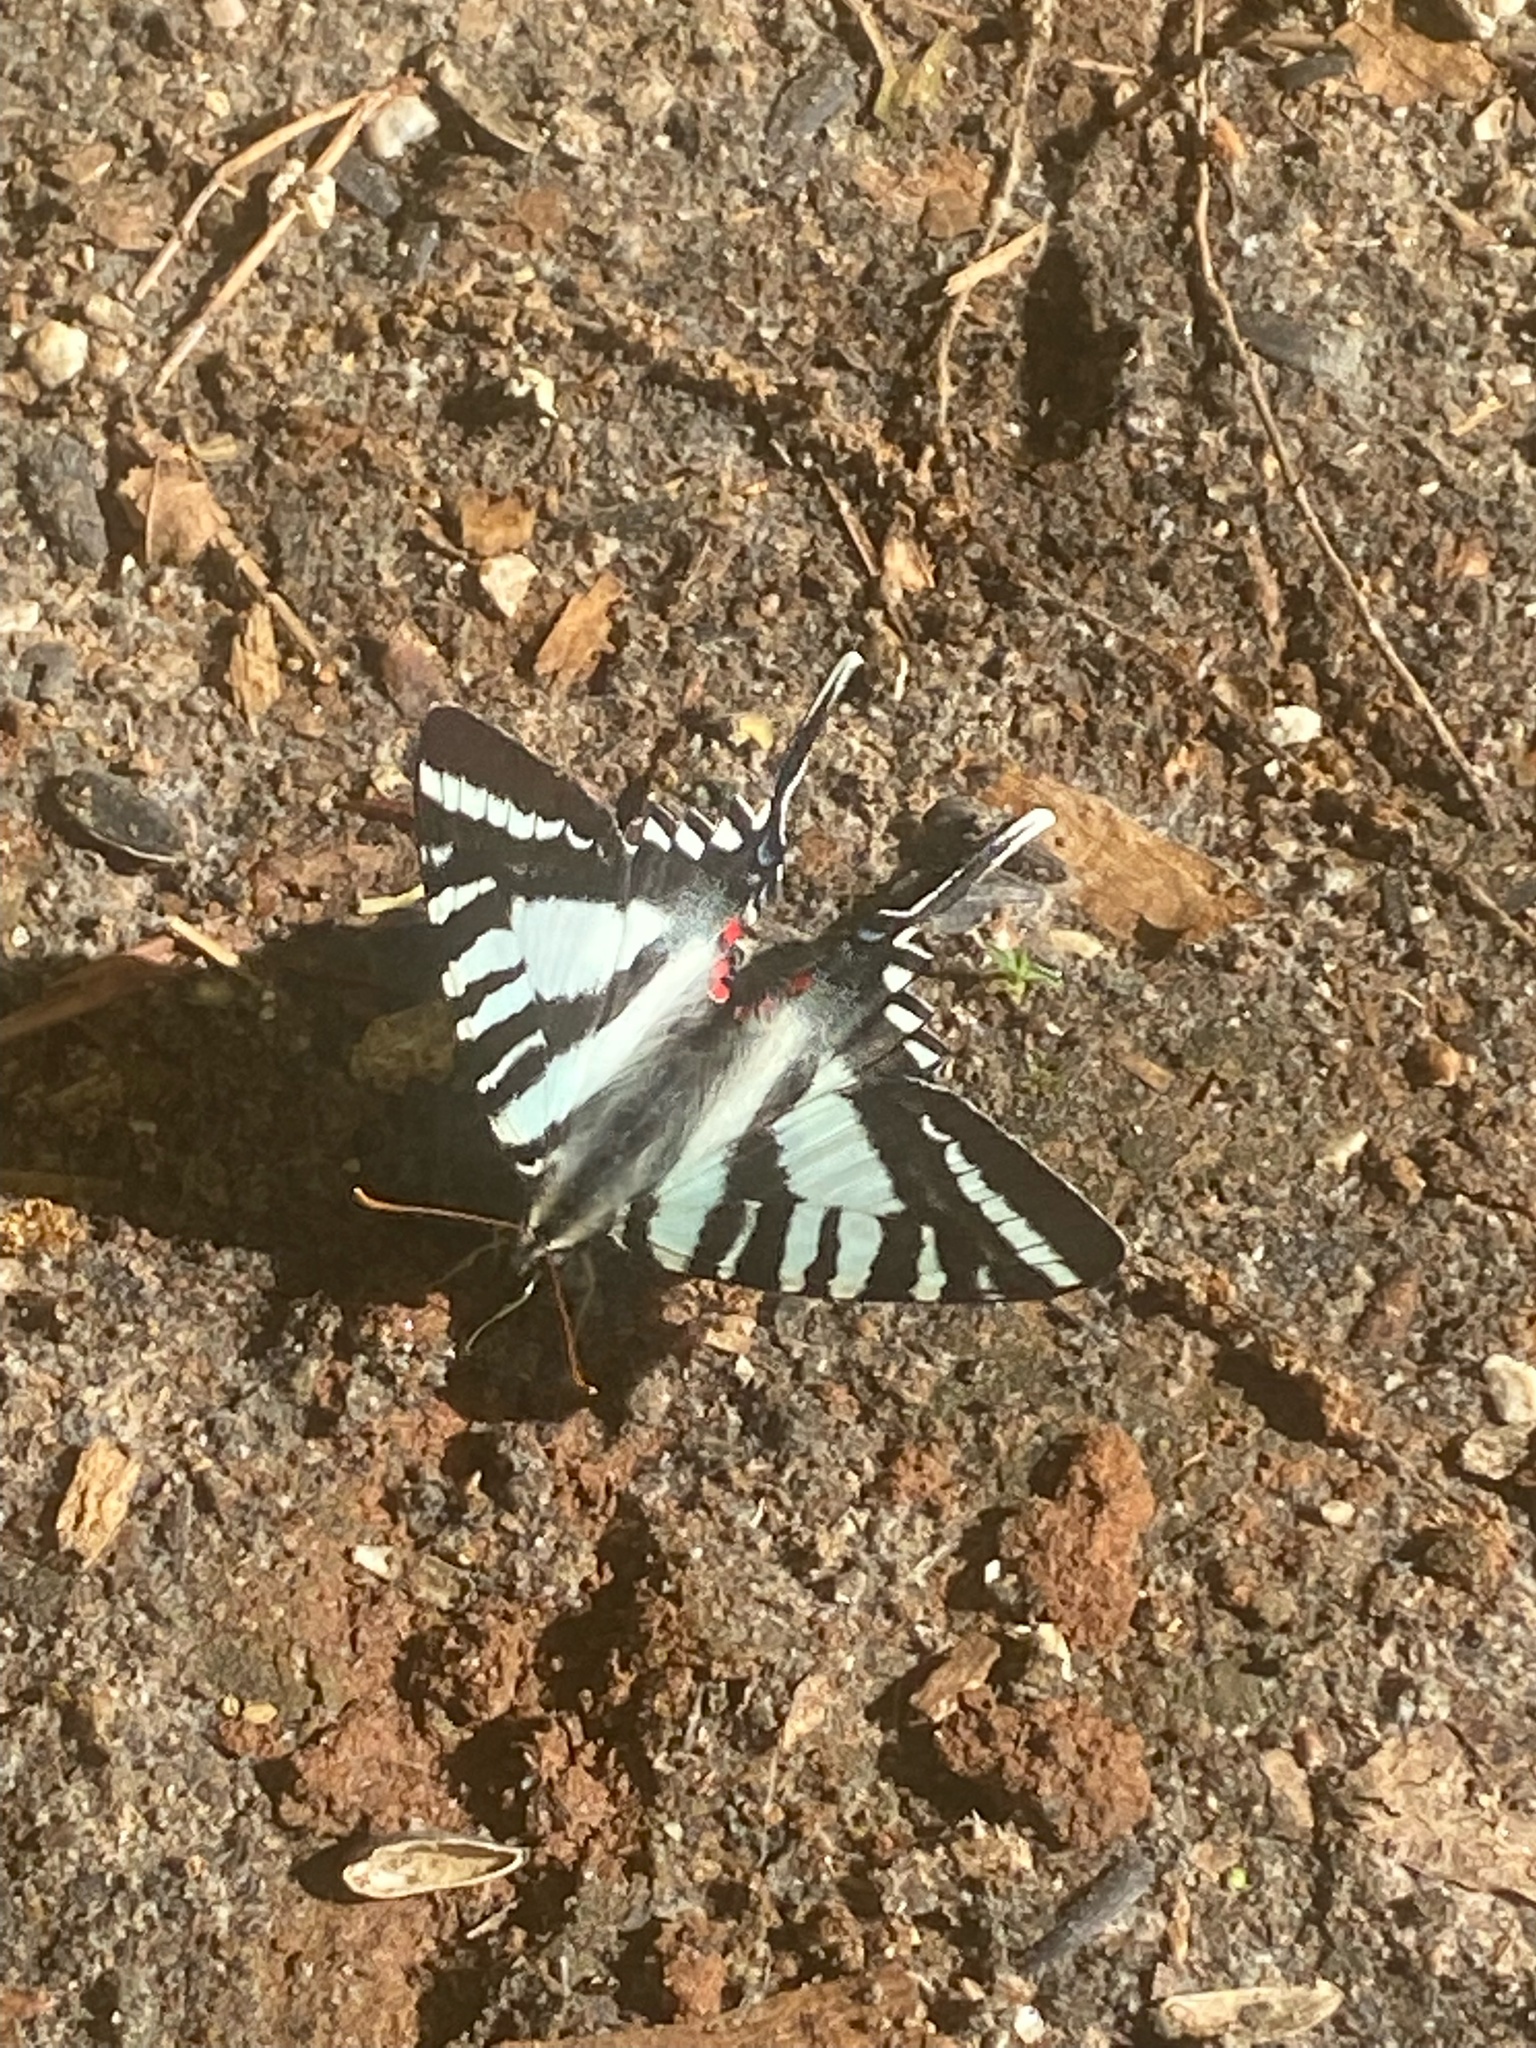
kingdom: Animalia
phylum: Arthropoda
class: Insecta
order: Lepidoptera
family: Papilionidae
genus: Protographium
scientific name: Protographium marcellus
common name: Zebra swallowtail
